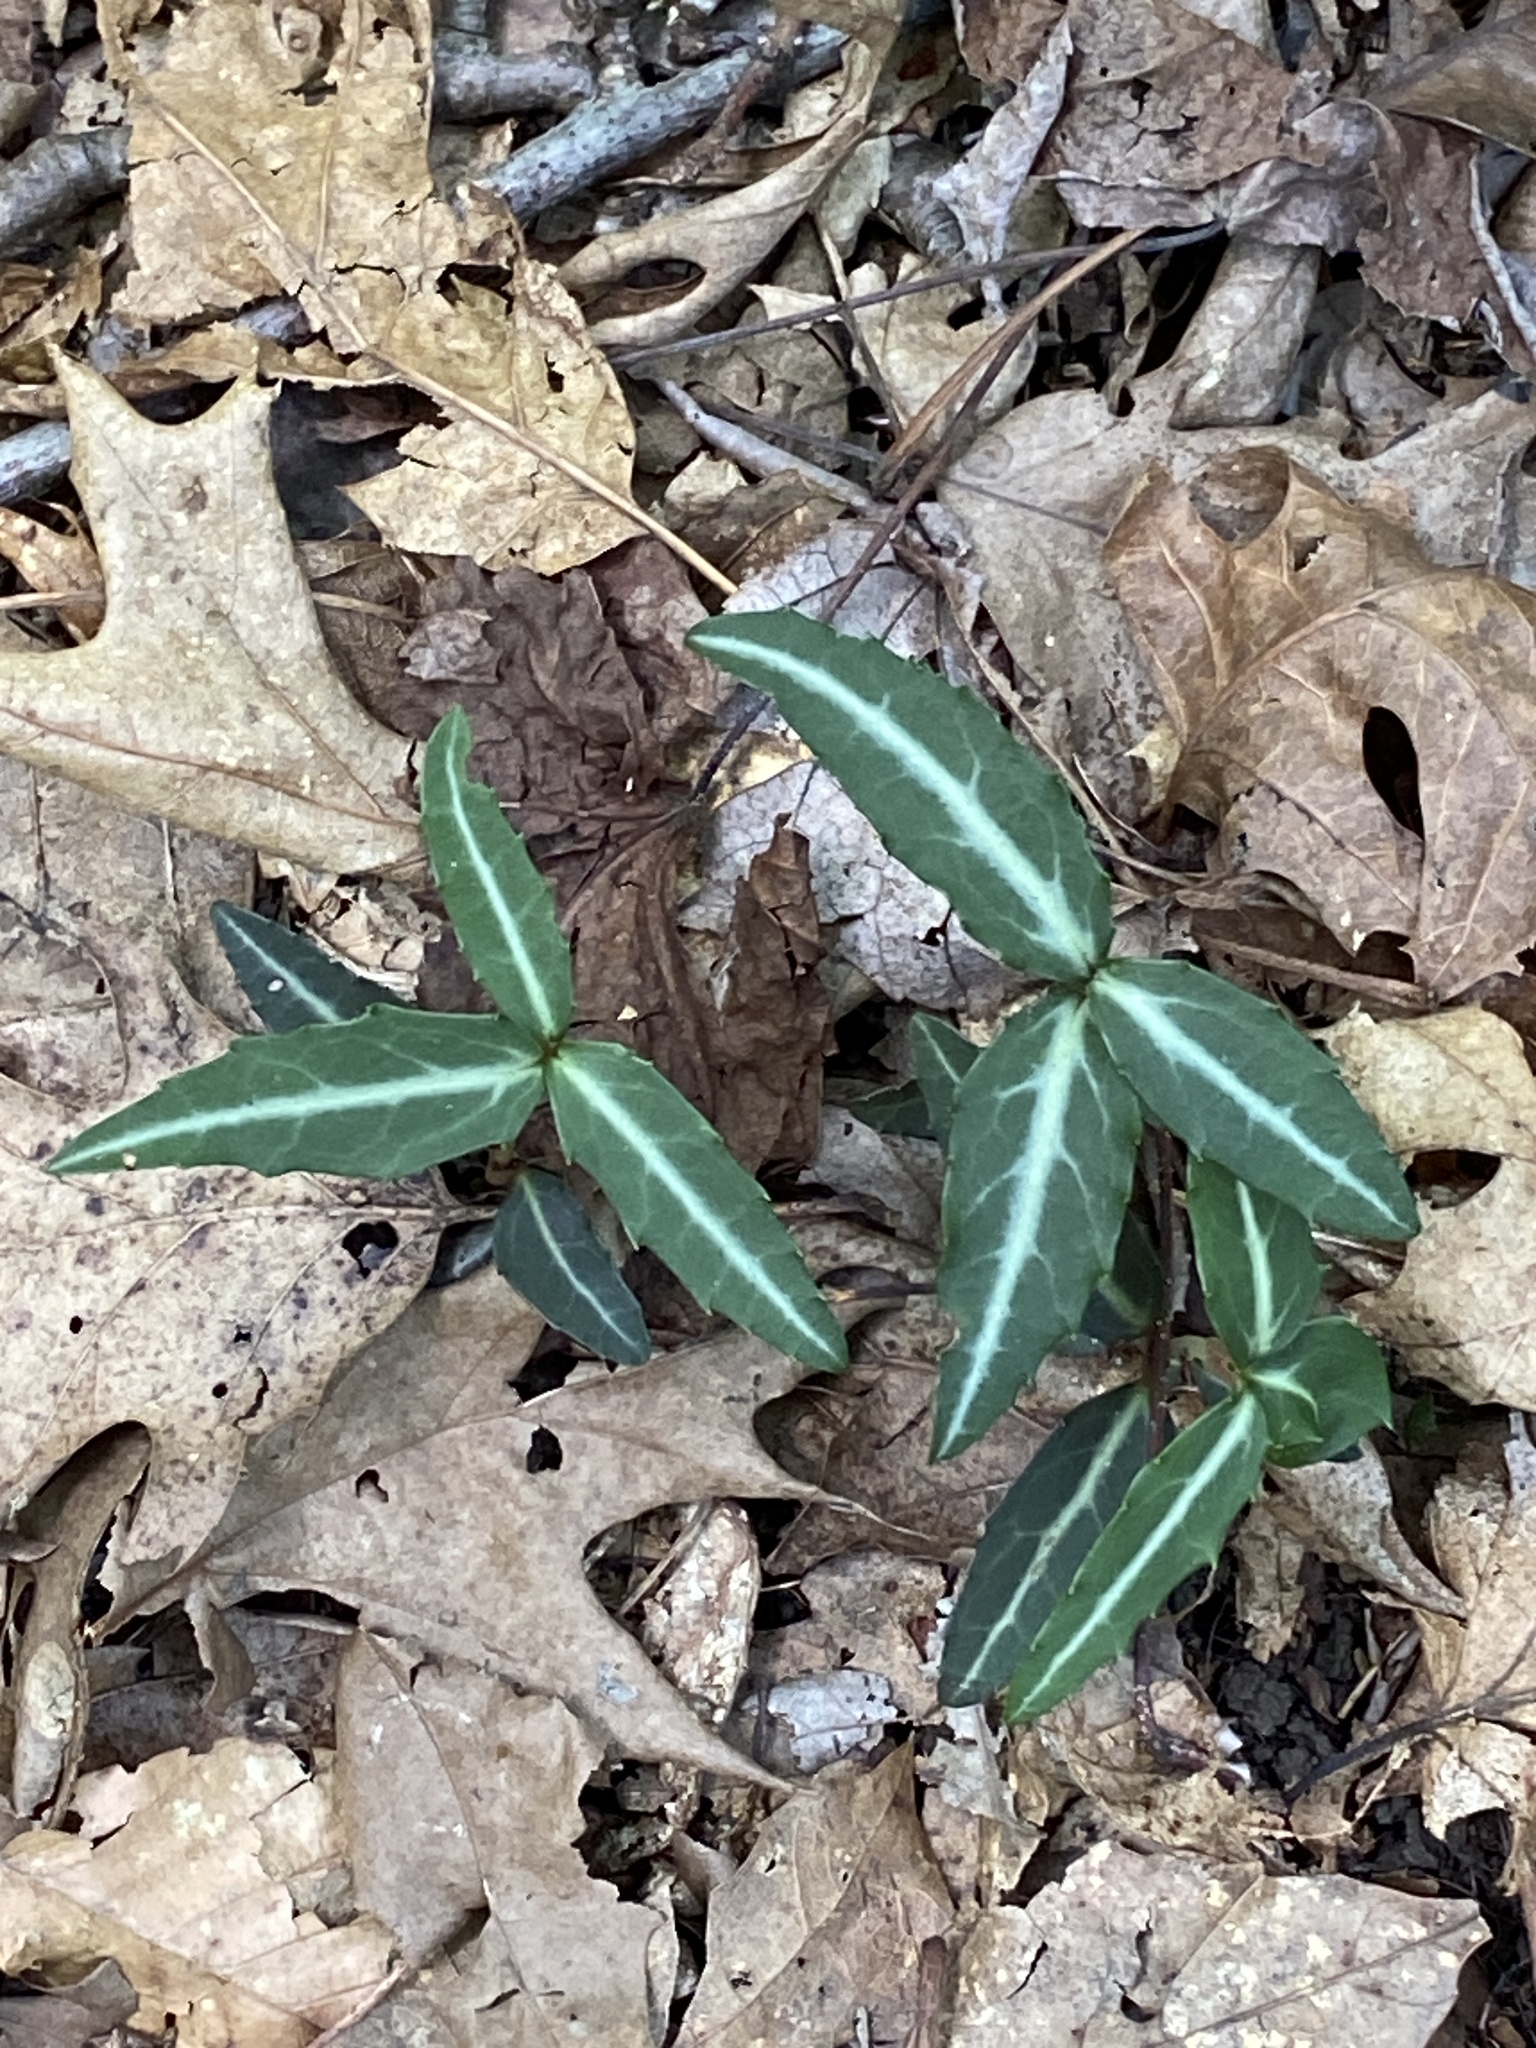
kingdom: Plantae
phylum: Tracheophyta
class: Magnoliopsida
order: Ericales
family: Ericaceae
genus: Chimaphila
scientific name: Chimaphila maculata
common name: Spotted pipsissewa
